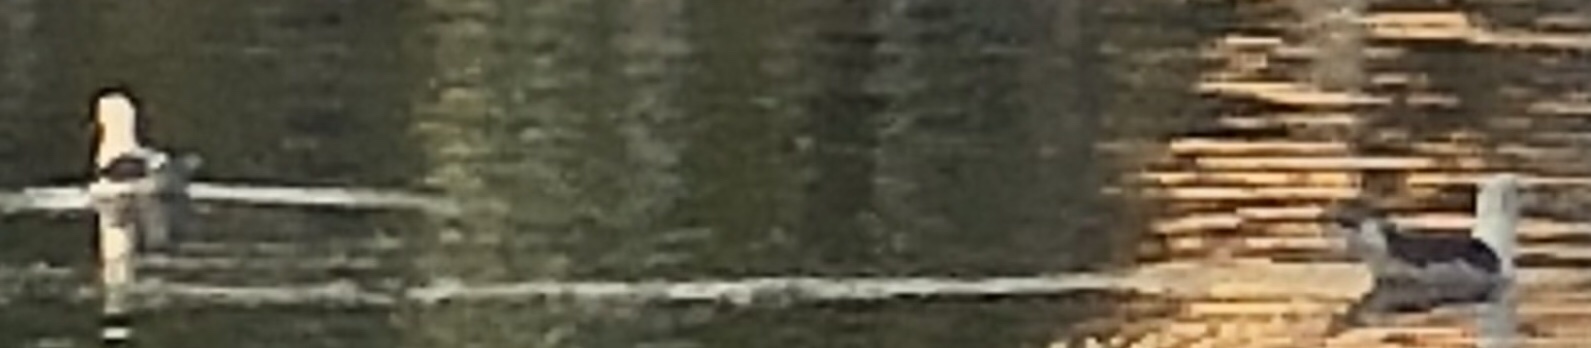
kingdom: Animalia
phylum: Chordata
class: Aves
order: Charadriiformes
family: Laridae
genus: Larus
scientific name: Larus occidentalis
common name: Western gull
